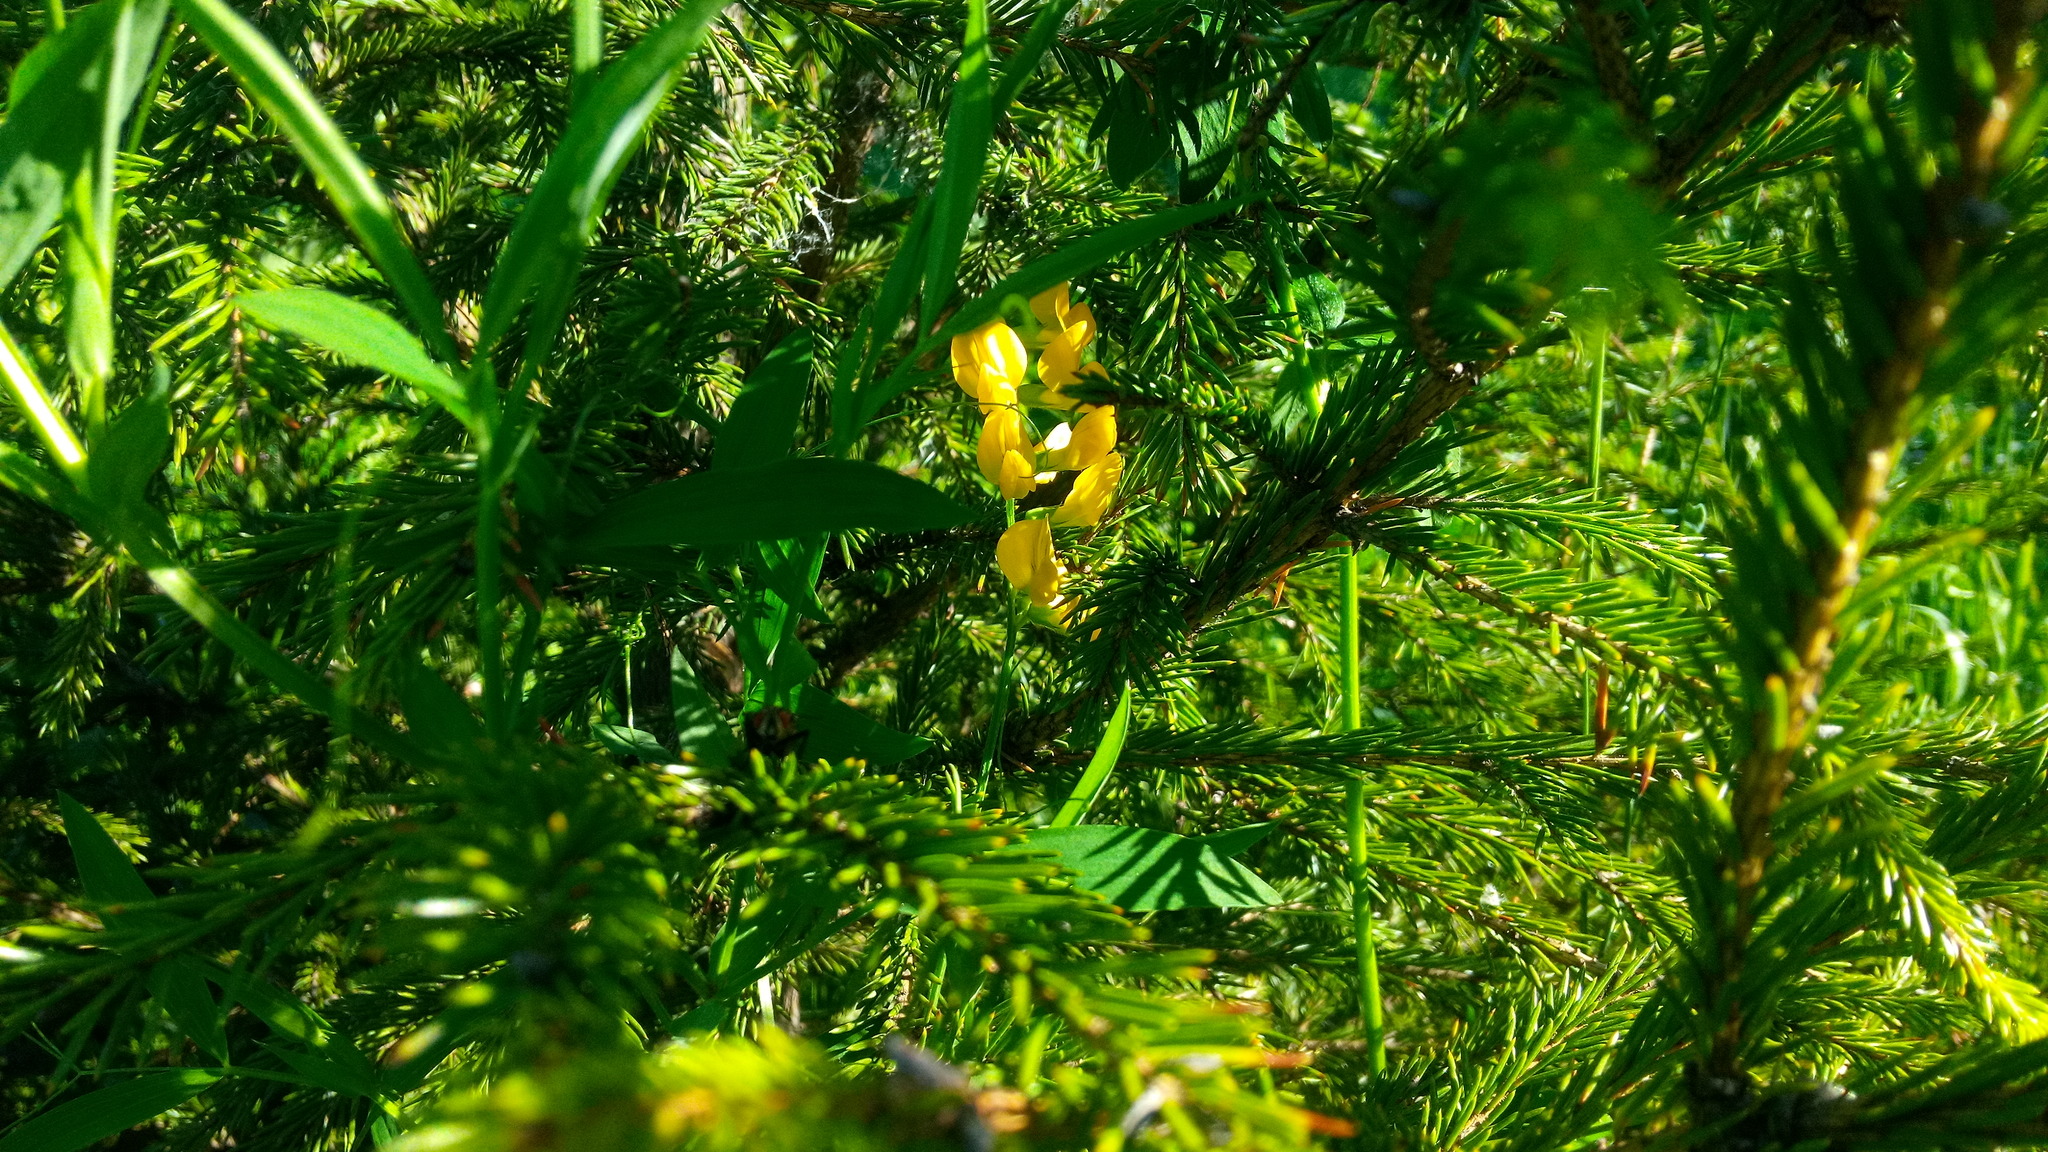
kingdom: Plantae
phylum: Tracheophyta
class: Magnoliopsida
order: Fabales
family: Fabaceae
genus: Lathyrus
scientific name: Lathyrus pratensis
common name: Meadow vetchling
